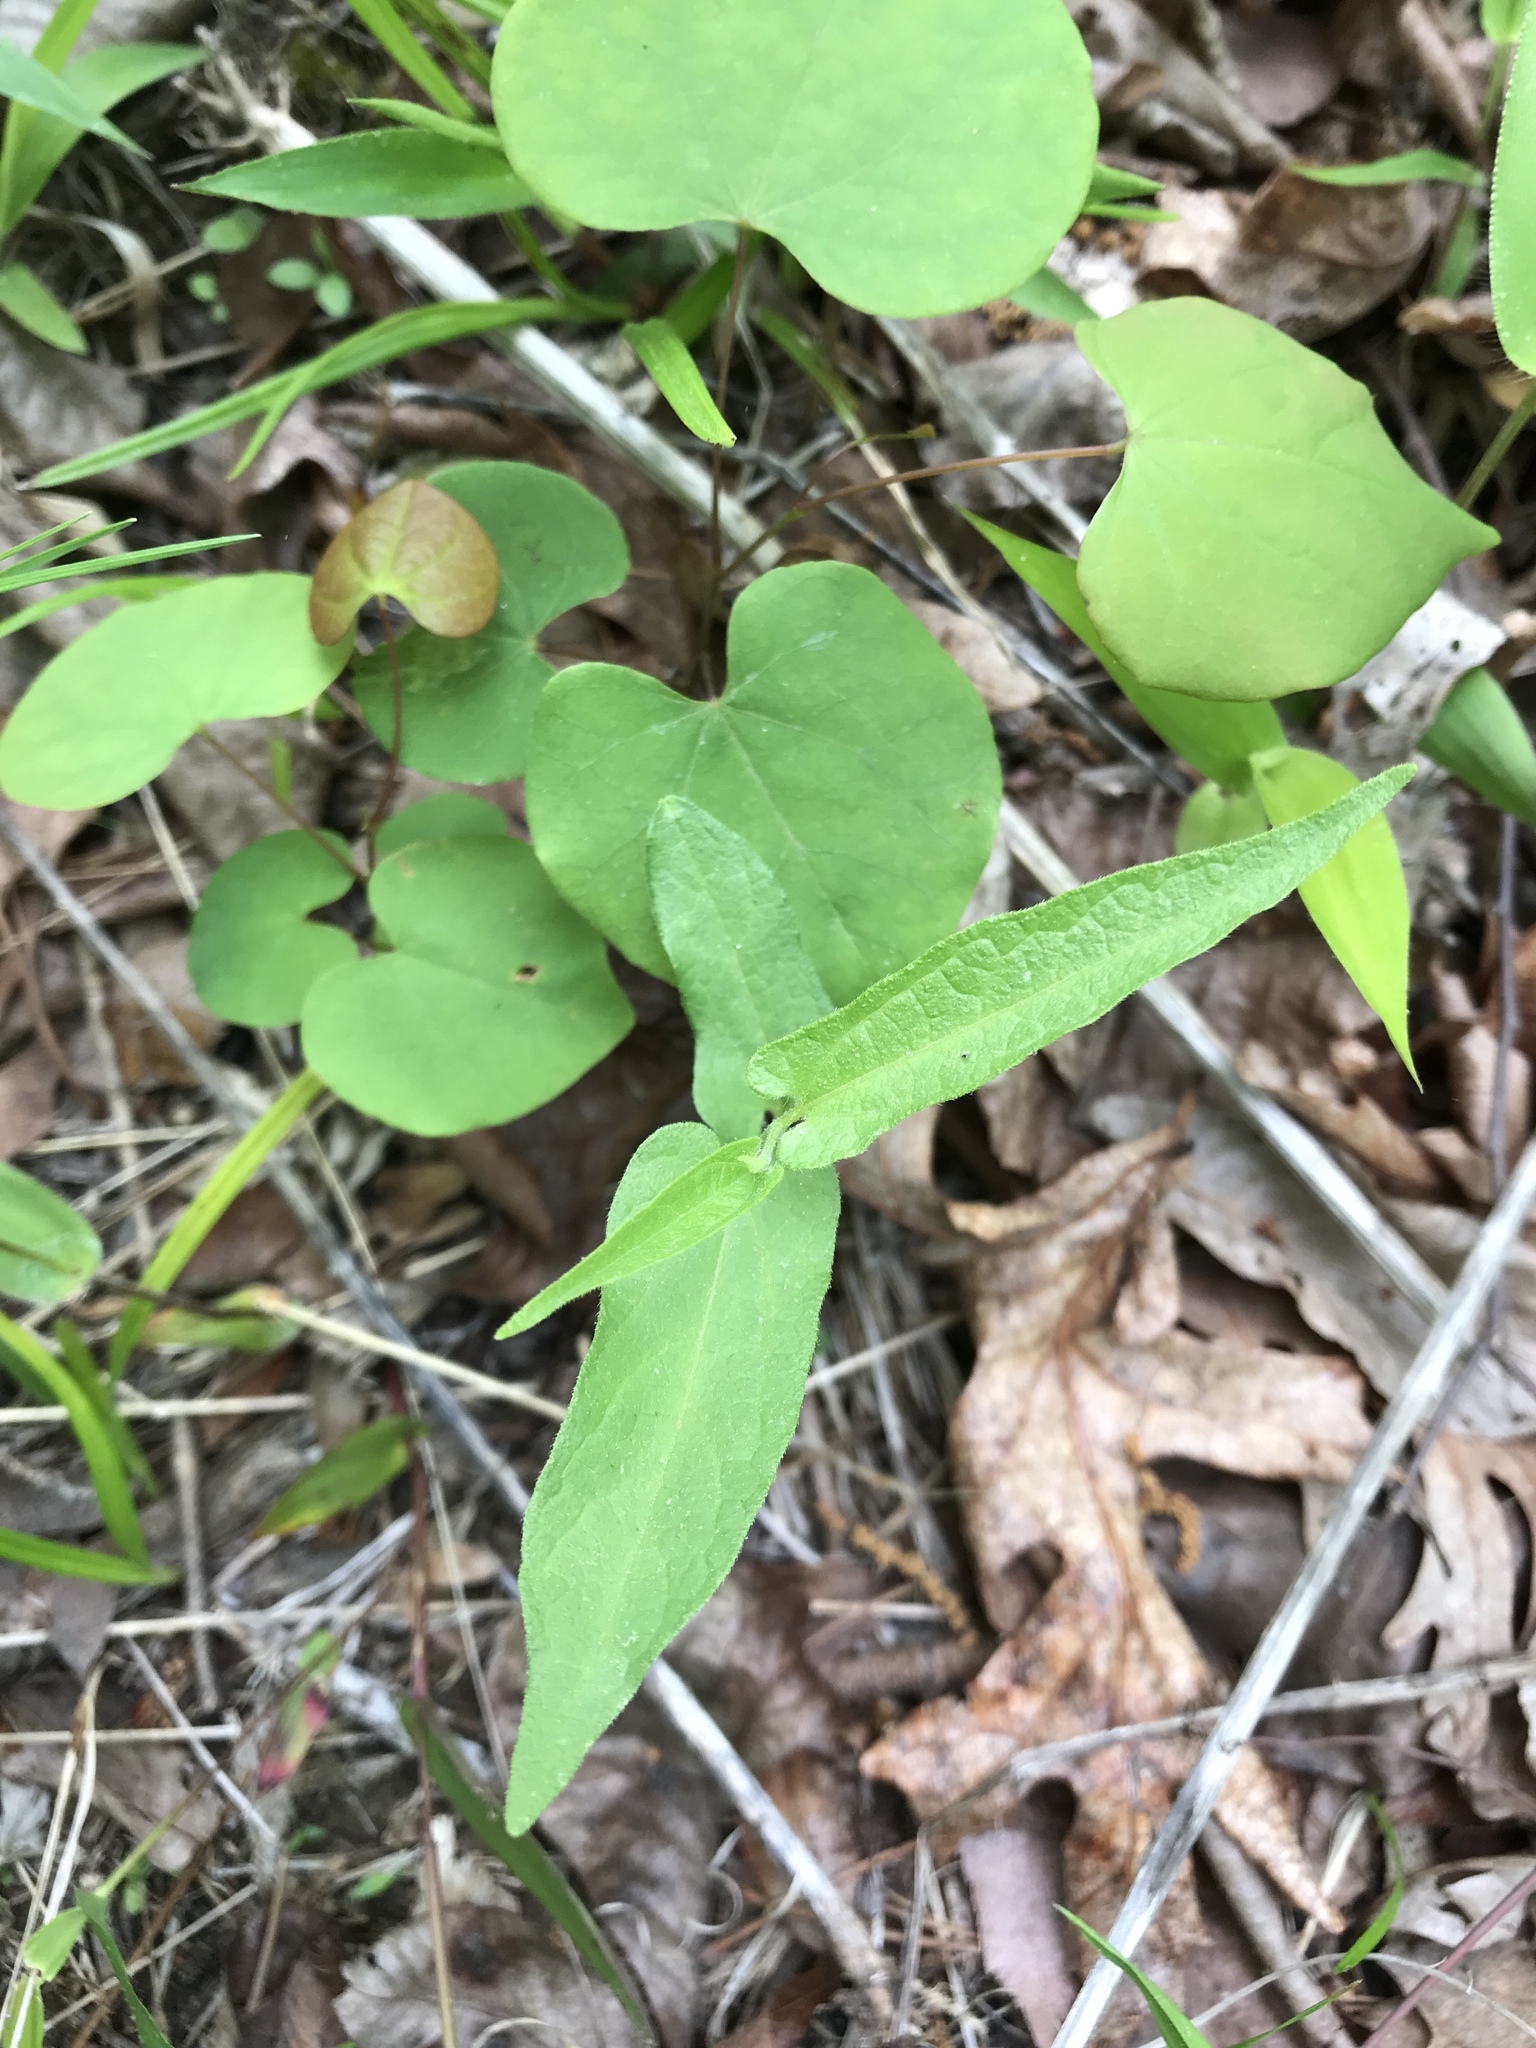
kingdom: Plantae
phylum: Tracheophyta
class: Magnoliopsida
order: Piperales
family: Aristolochiaceae
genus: Endodeca
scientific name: Endodeca serpentaria
